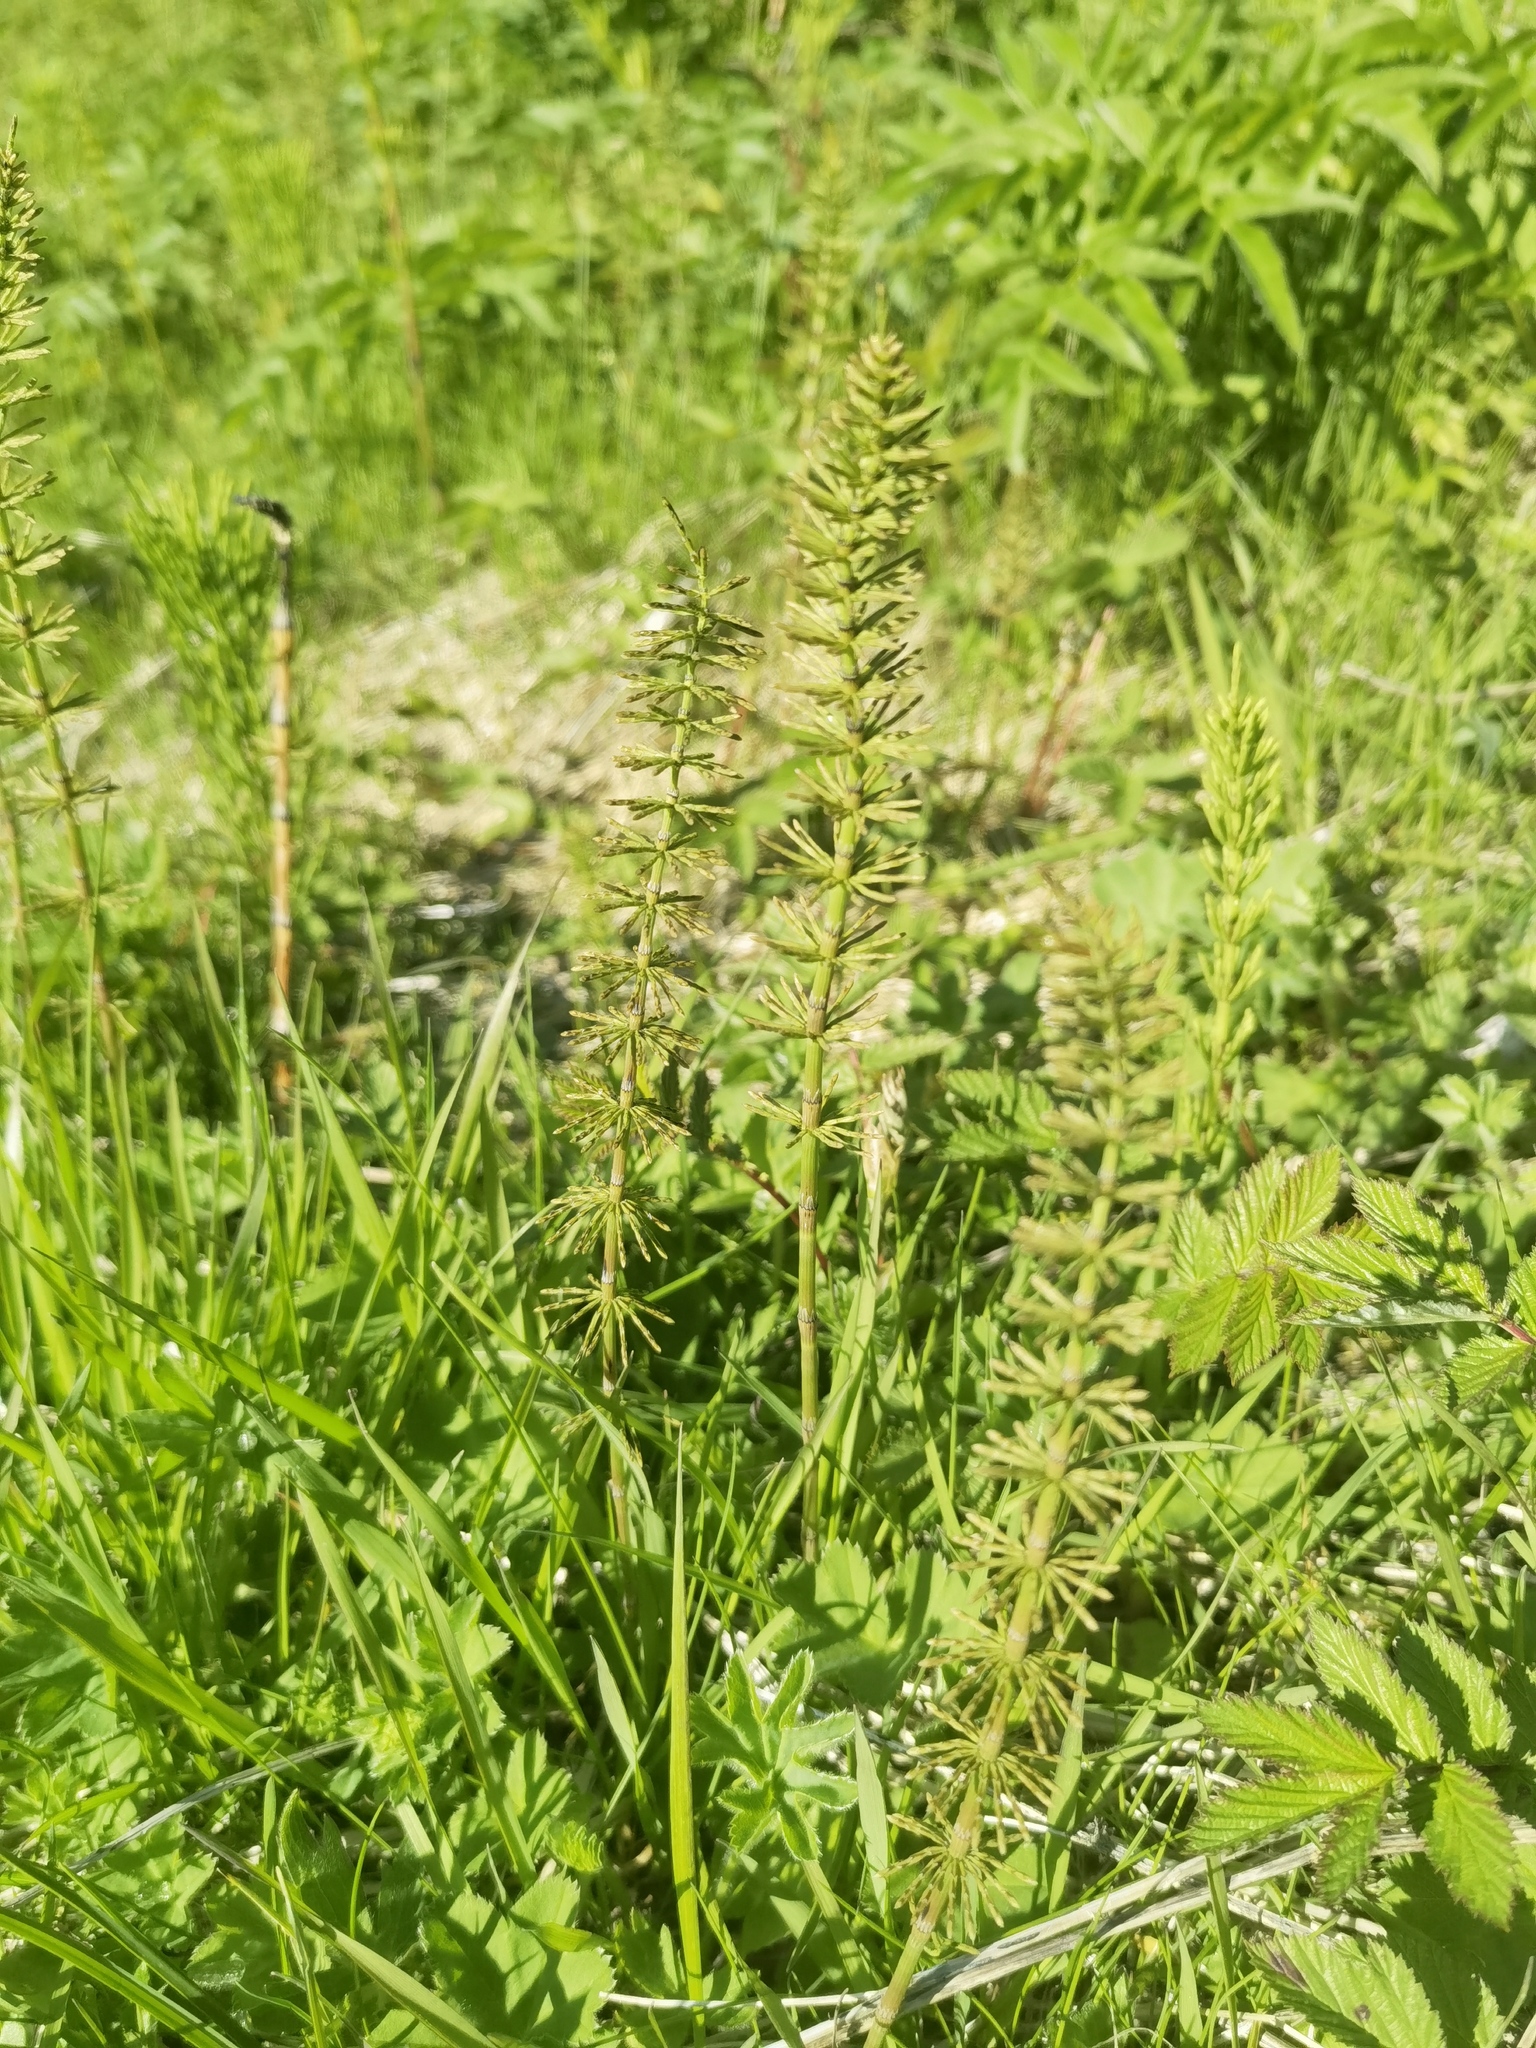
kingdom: Plantae
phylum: Tracheophyta
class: Polypodiopsida
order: Equisetales
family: Equisetaceae
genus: Equisetum
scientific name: Equisetum pratense
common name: Meadow horsetail
